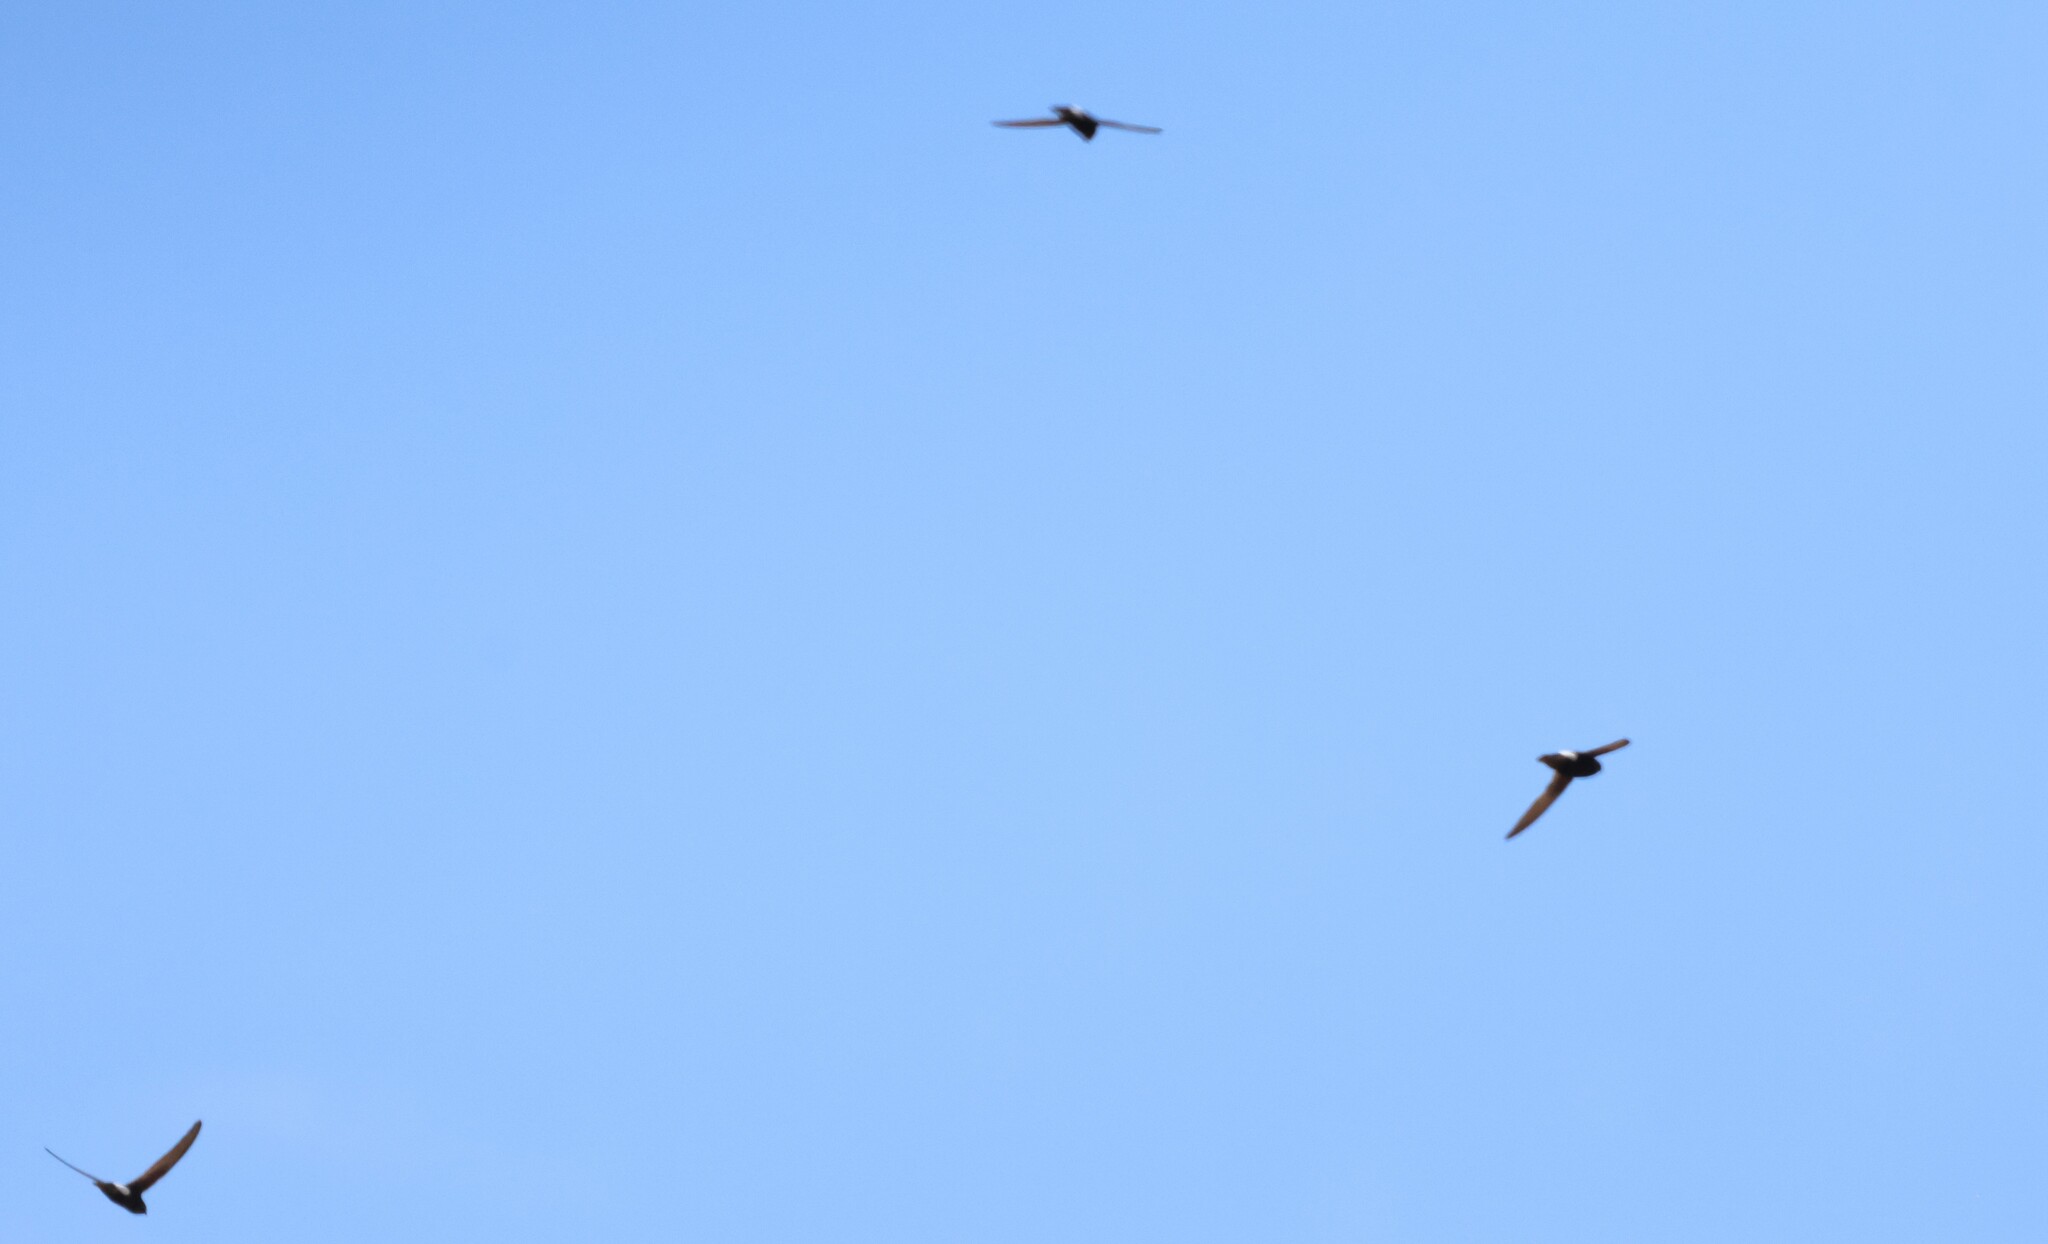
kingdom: Animalia
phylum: Chordata
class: Aves
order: Apodiformes
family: Apodidae
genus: Apus
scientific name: Apus affinis
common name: Little swift
